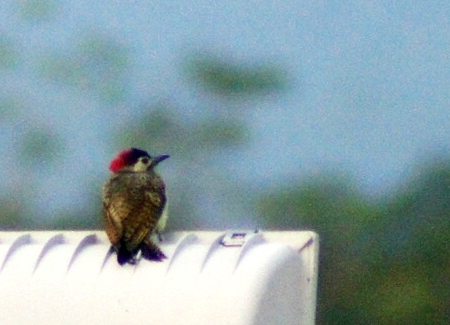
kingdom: Animalia
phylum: Chordata
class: Aves
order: Piciformes
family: Picidae
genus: Colaptes
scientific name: Colaptes punctigula
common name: Spot-breasted woodpecker
